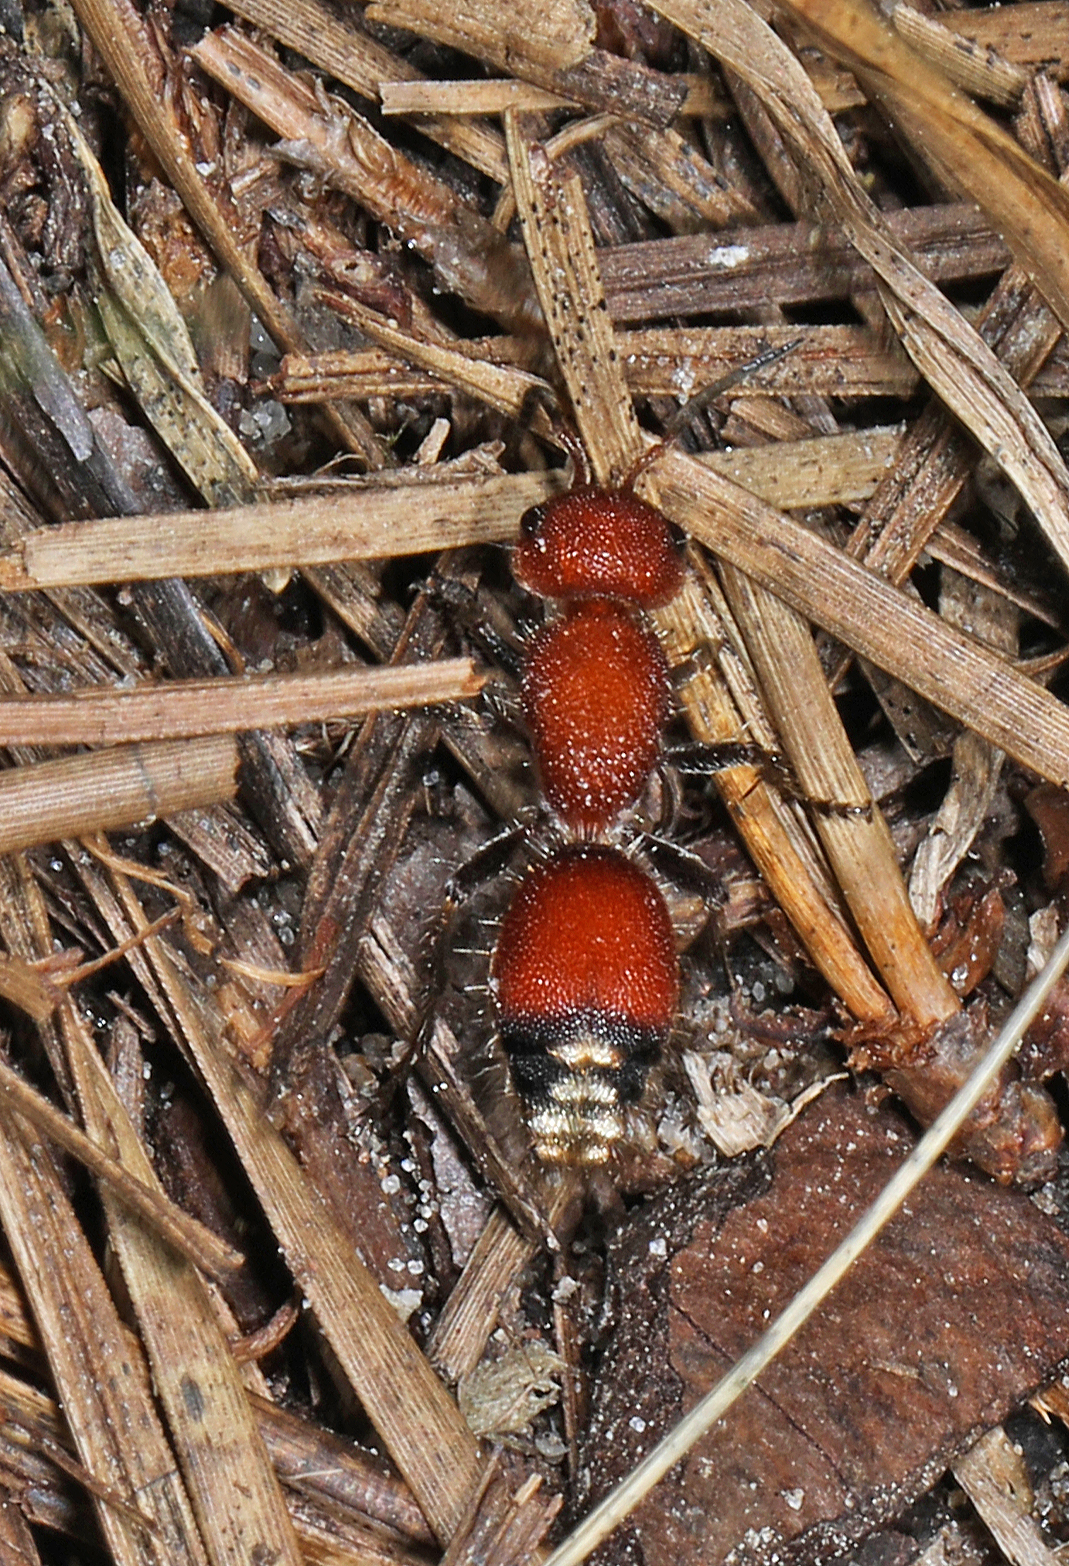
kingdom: Animalia
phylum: Arthropoda
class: Insecta
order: Hymenoptera
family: Mutillidae
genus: Dasymutilla
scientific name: Dasymutilla
